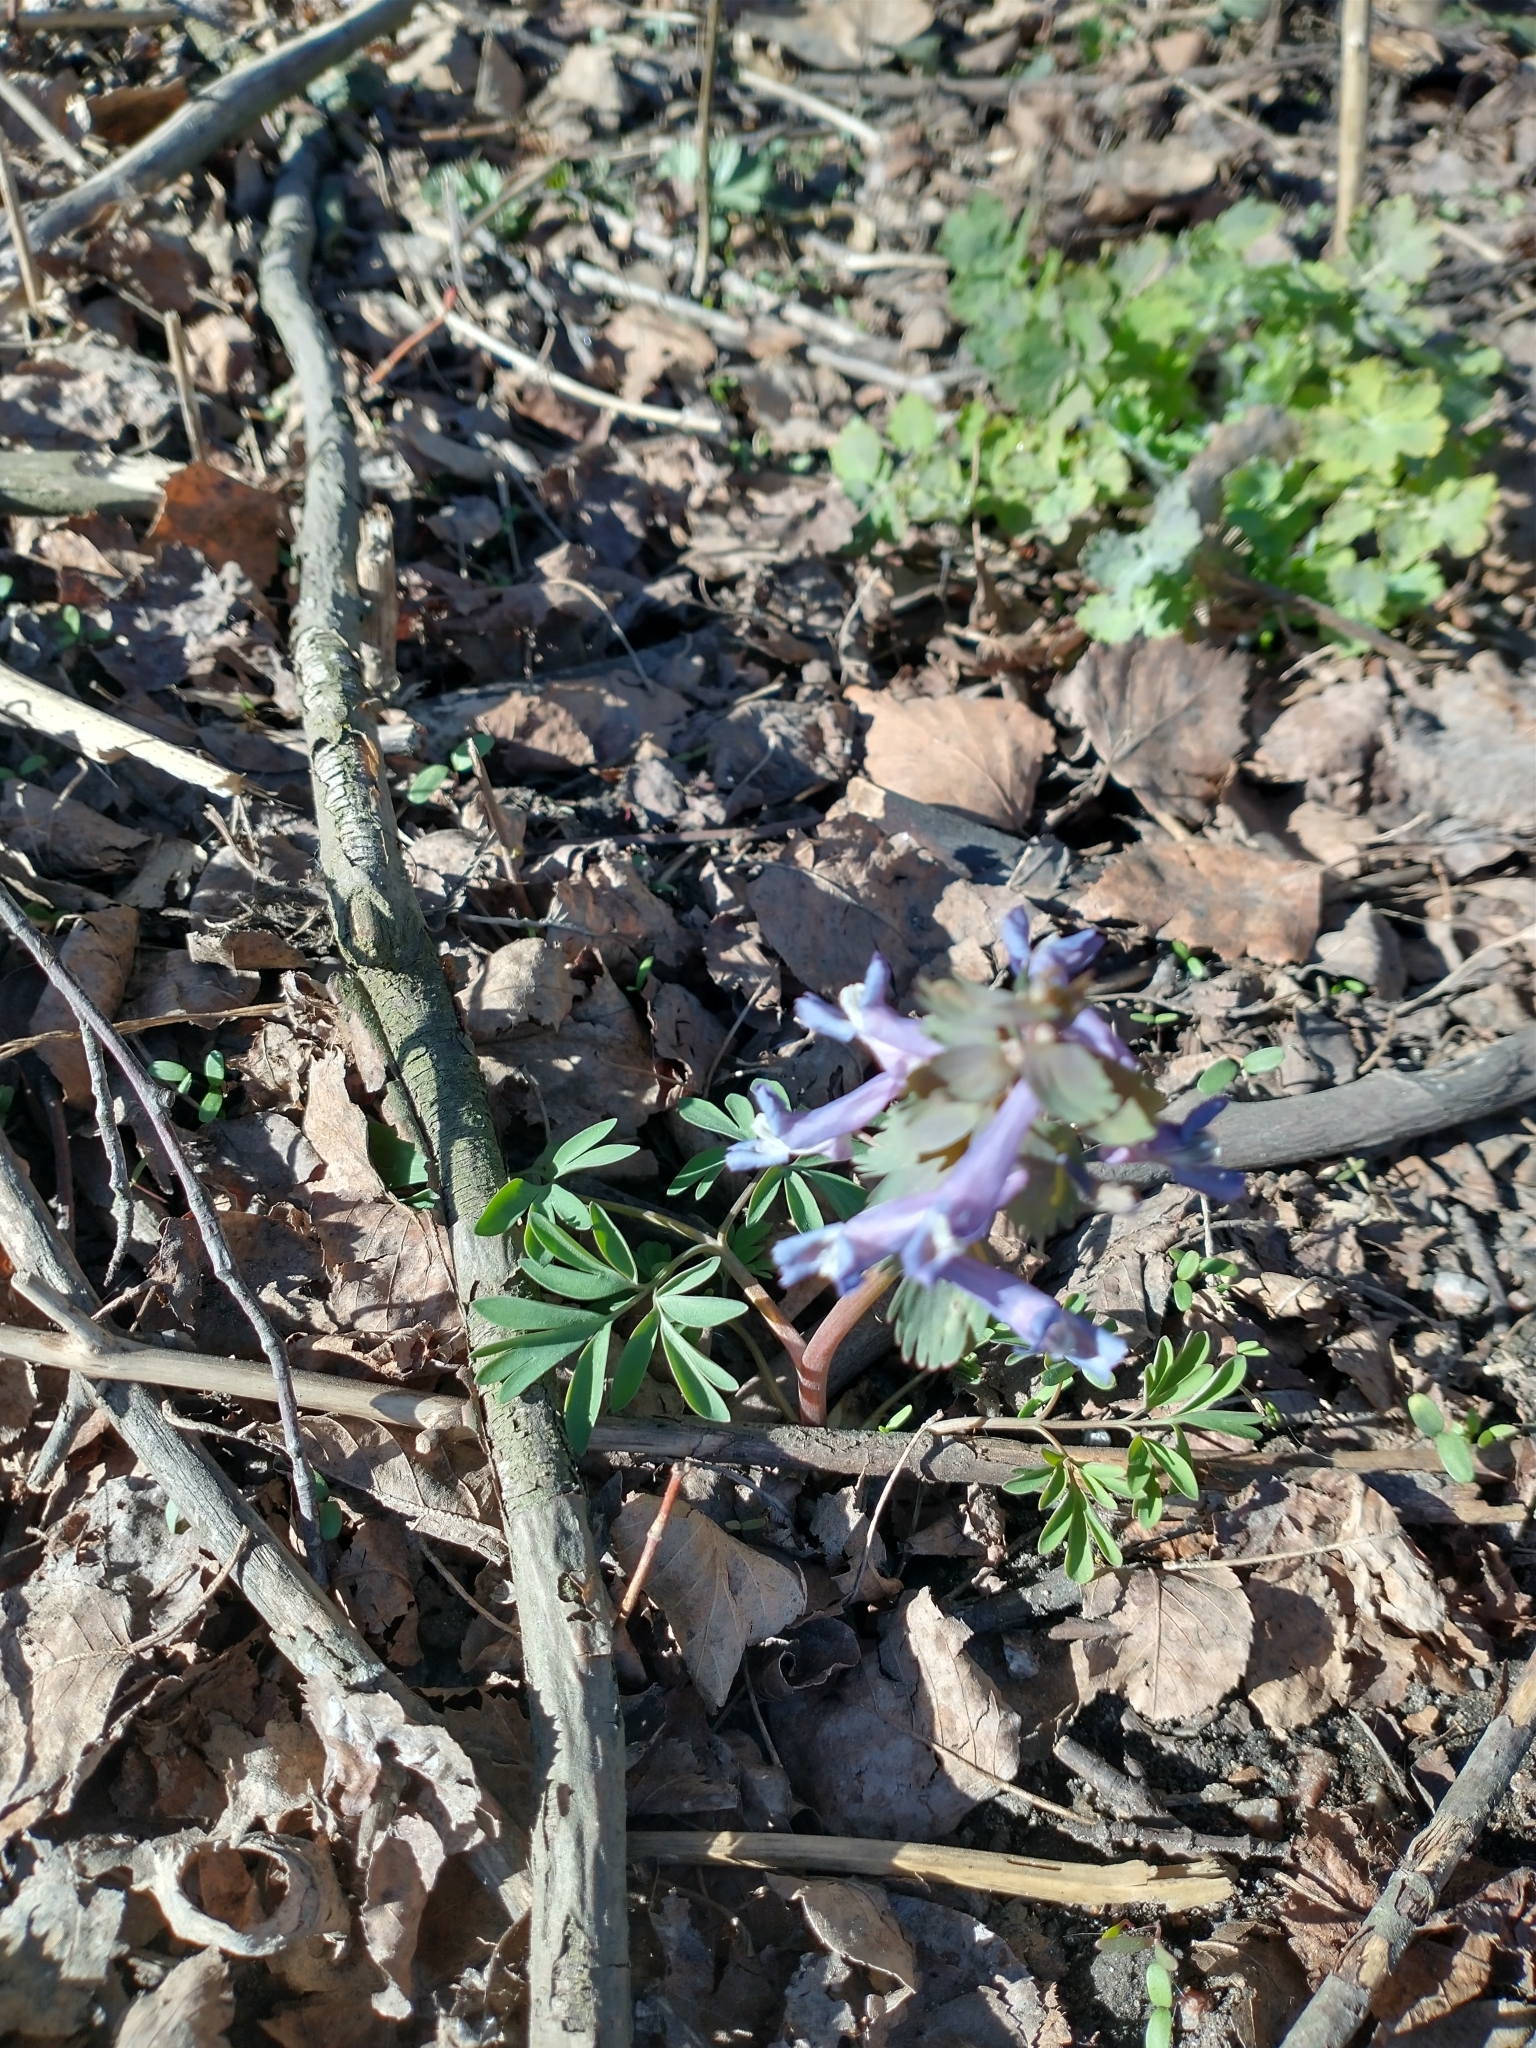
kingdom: Plantae
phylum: Tracheophyta
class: Magnoliopsida
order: Ranunculales
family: Papaveraceae
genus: Corydalis
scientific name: Corydalis solida
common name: Bird-in-a-bush
